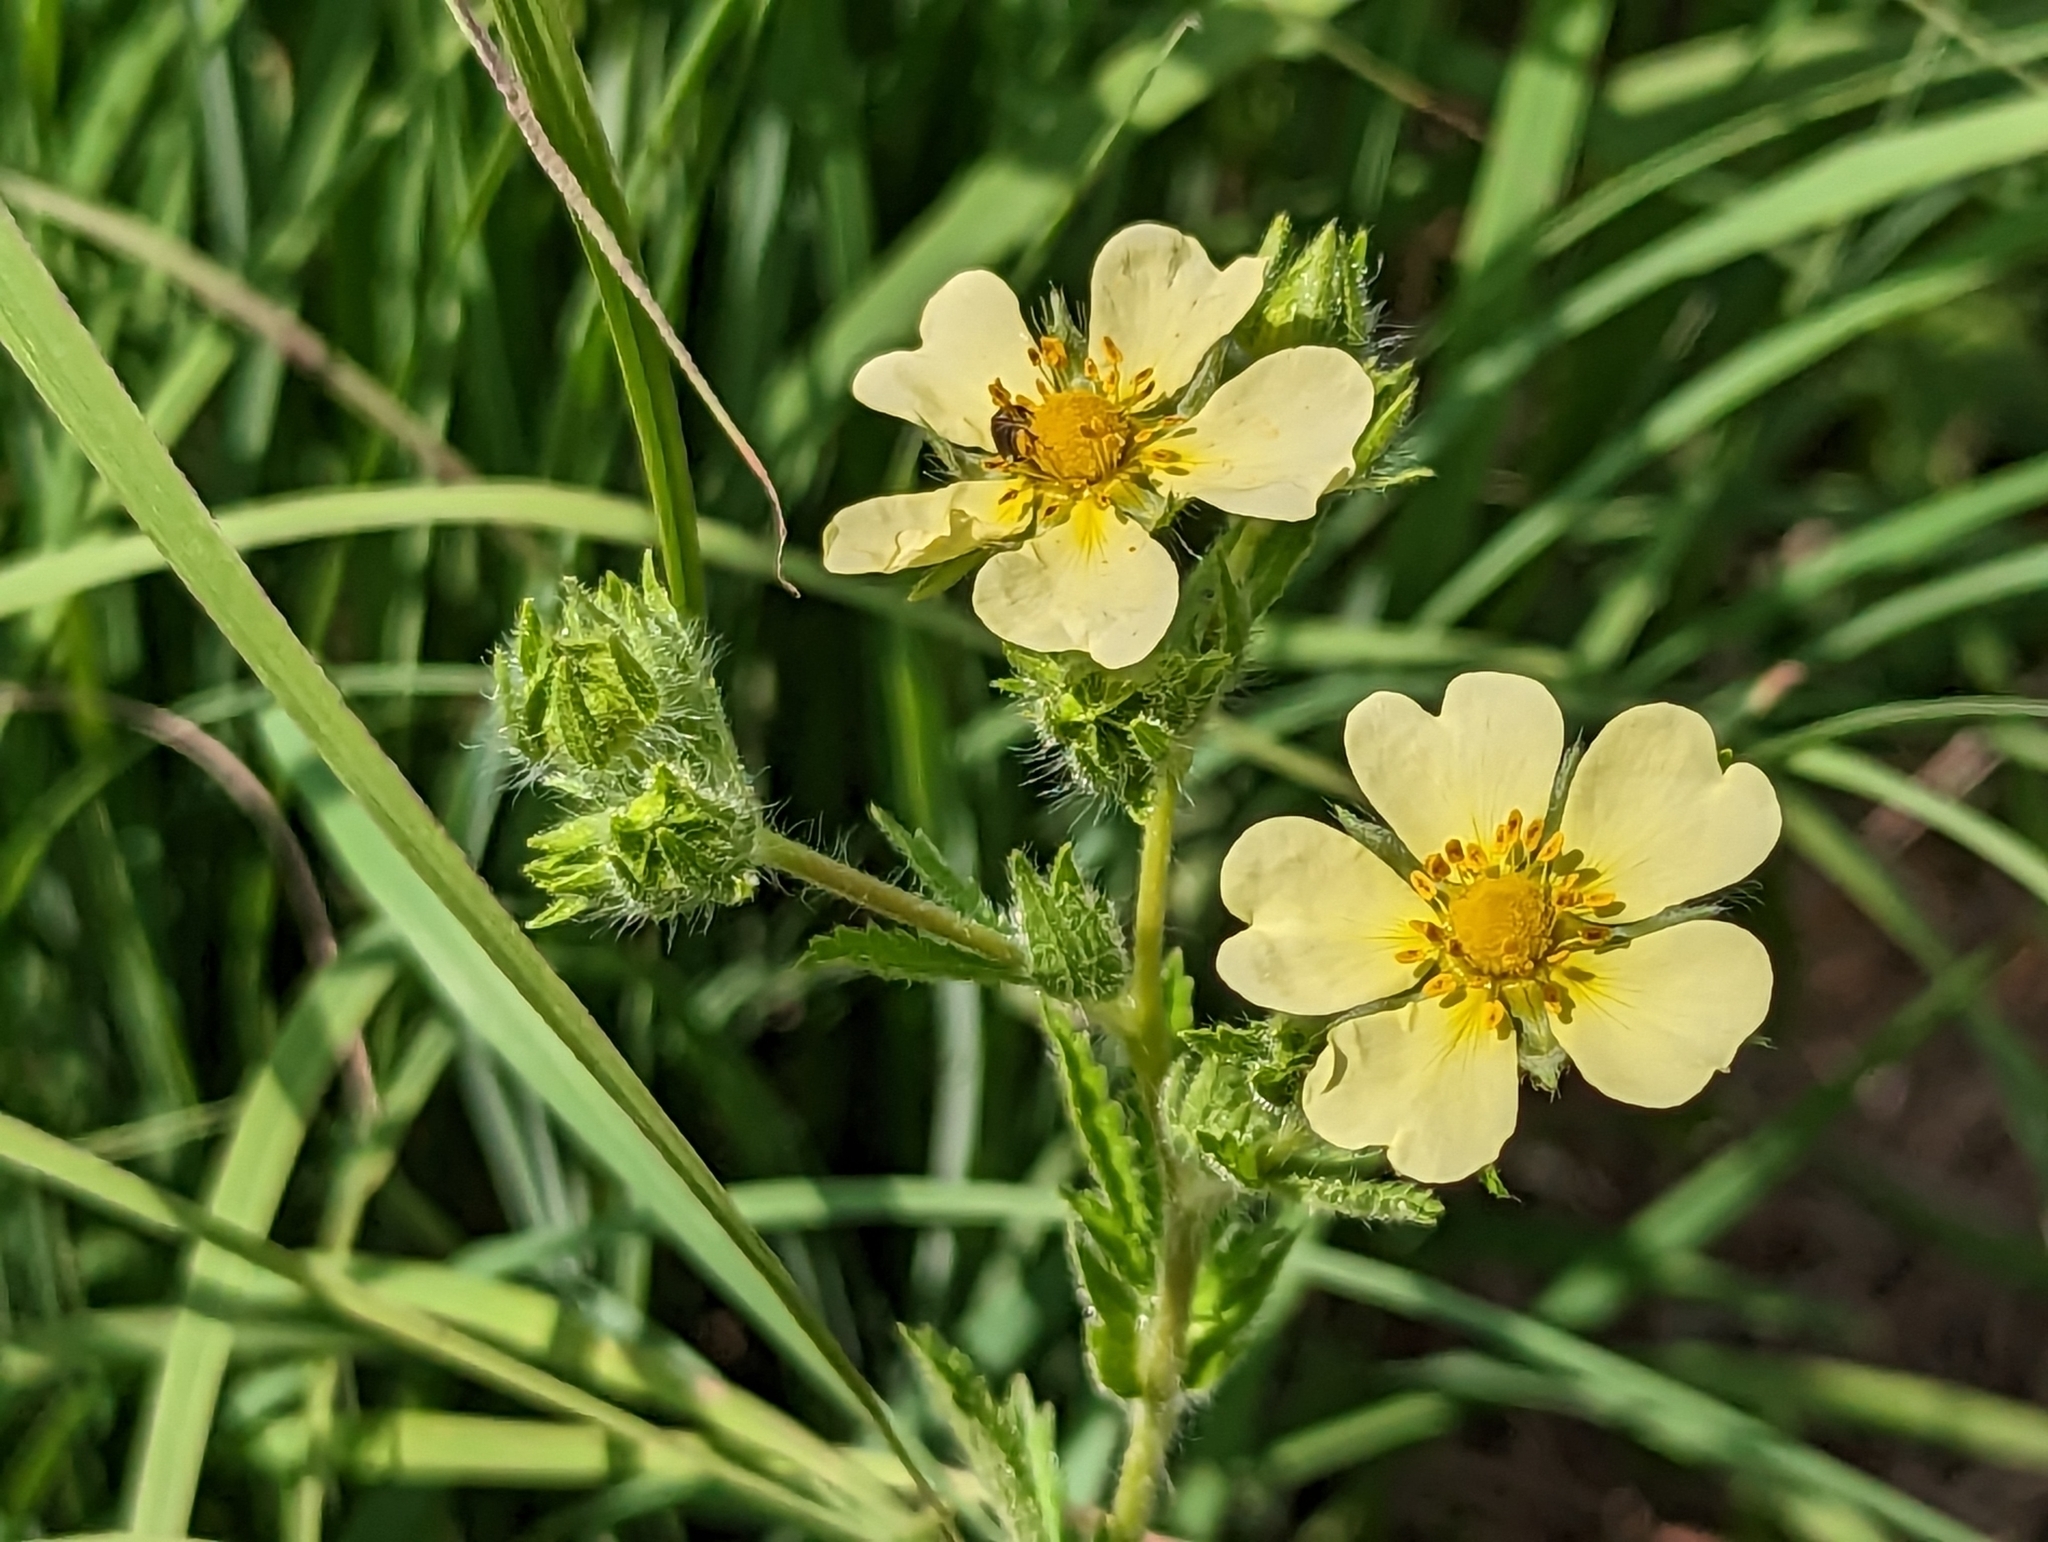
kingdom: Plantae
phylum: Tracheophyta
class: Magnoliopsida
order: Rosales
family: Rosaceae
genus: Potentilla
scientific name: Potentilla recta
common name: Sulphur cinquefoil
